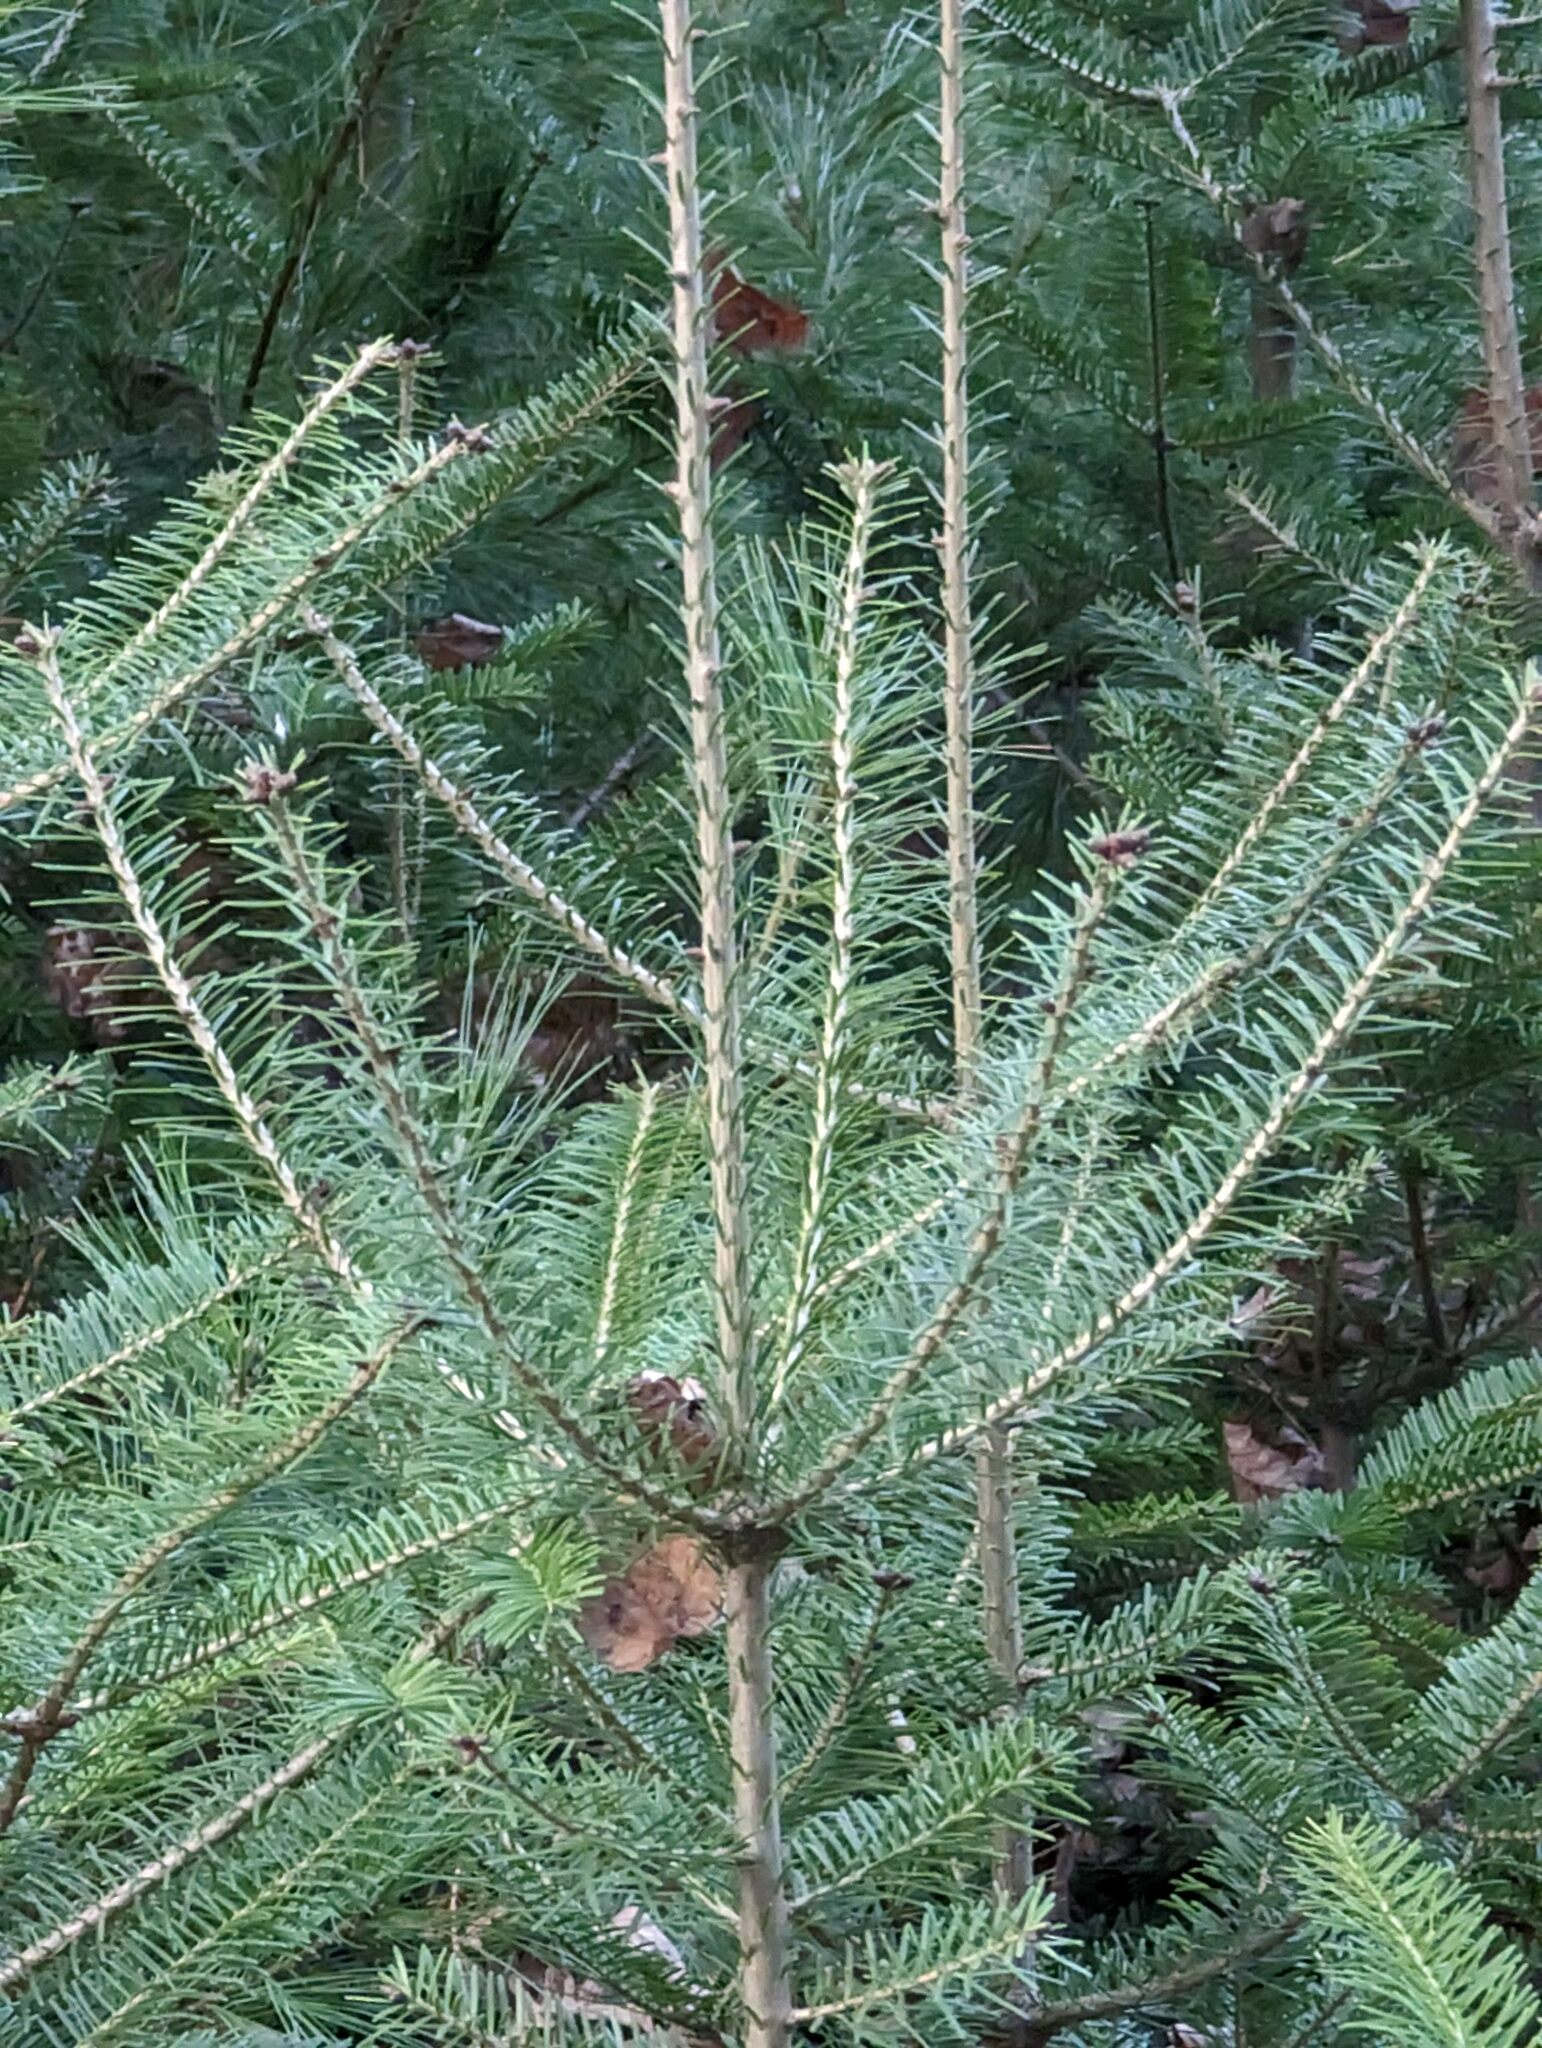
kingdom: Plantae
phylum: Tracheophyta
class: Pinopsida
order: Pinales
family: Pinaceae
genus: Abies
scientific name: Abies balsamea
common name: Balsam fir
